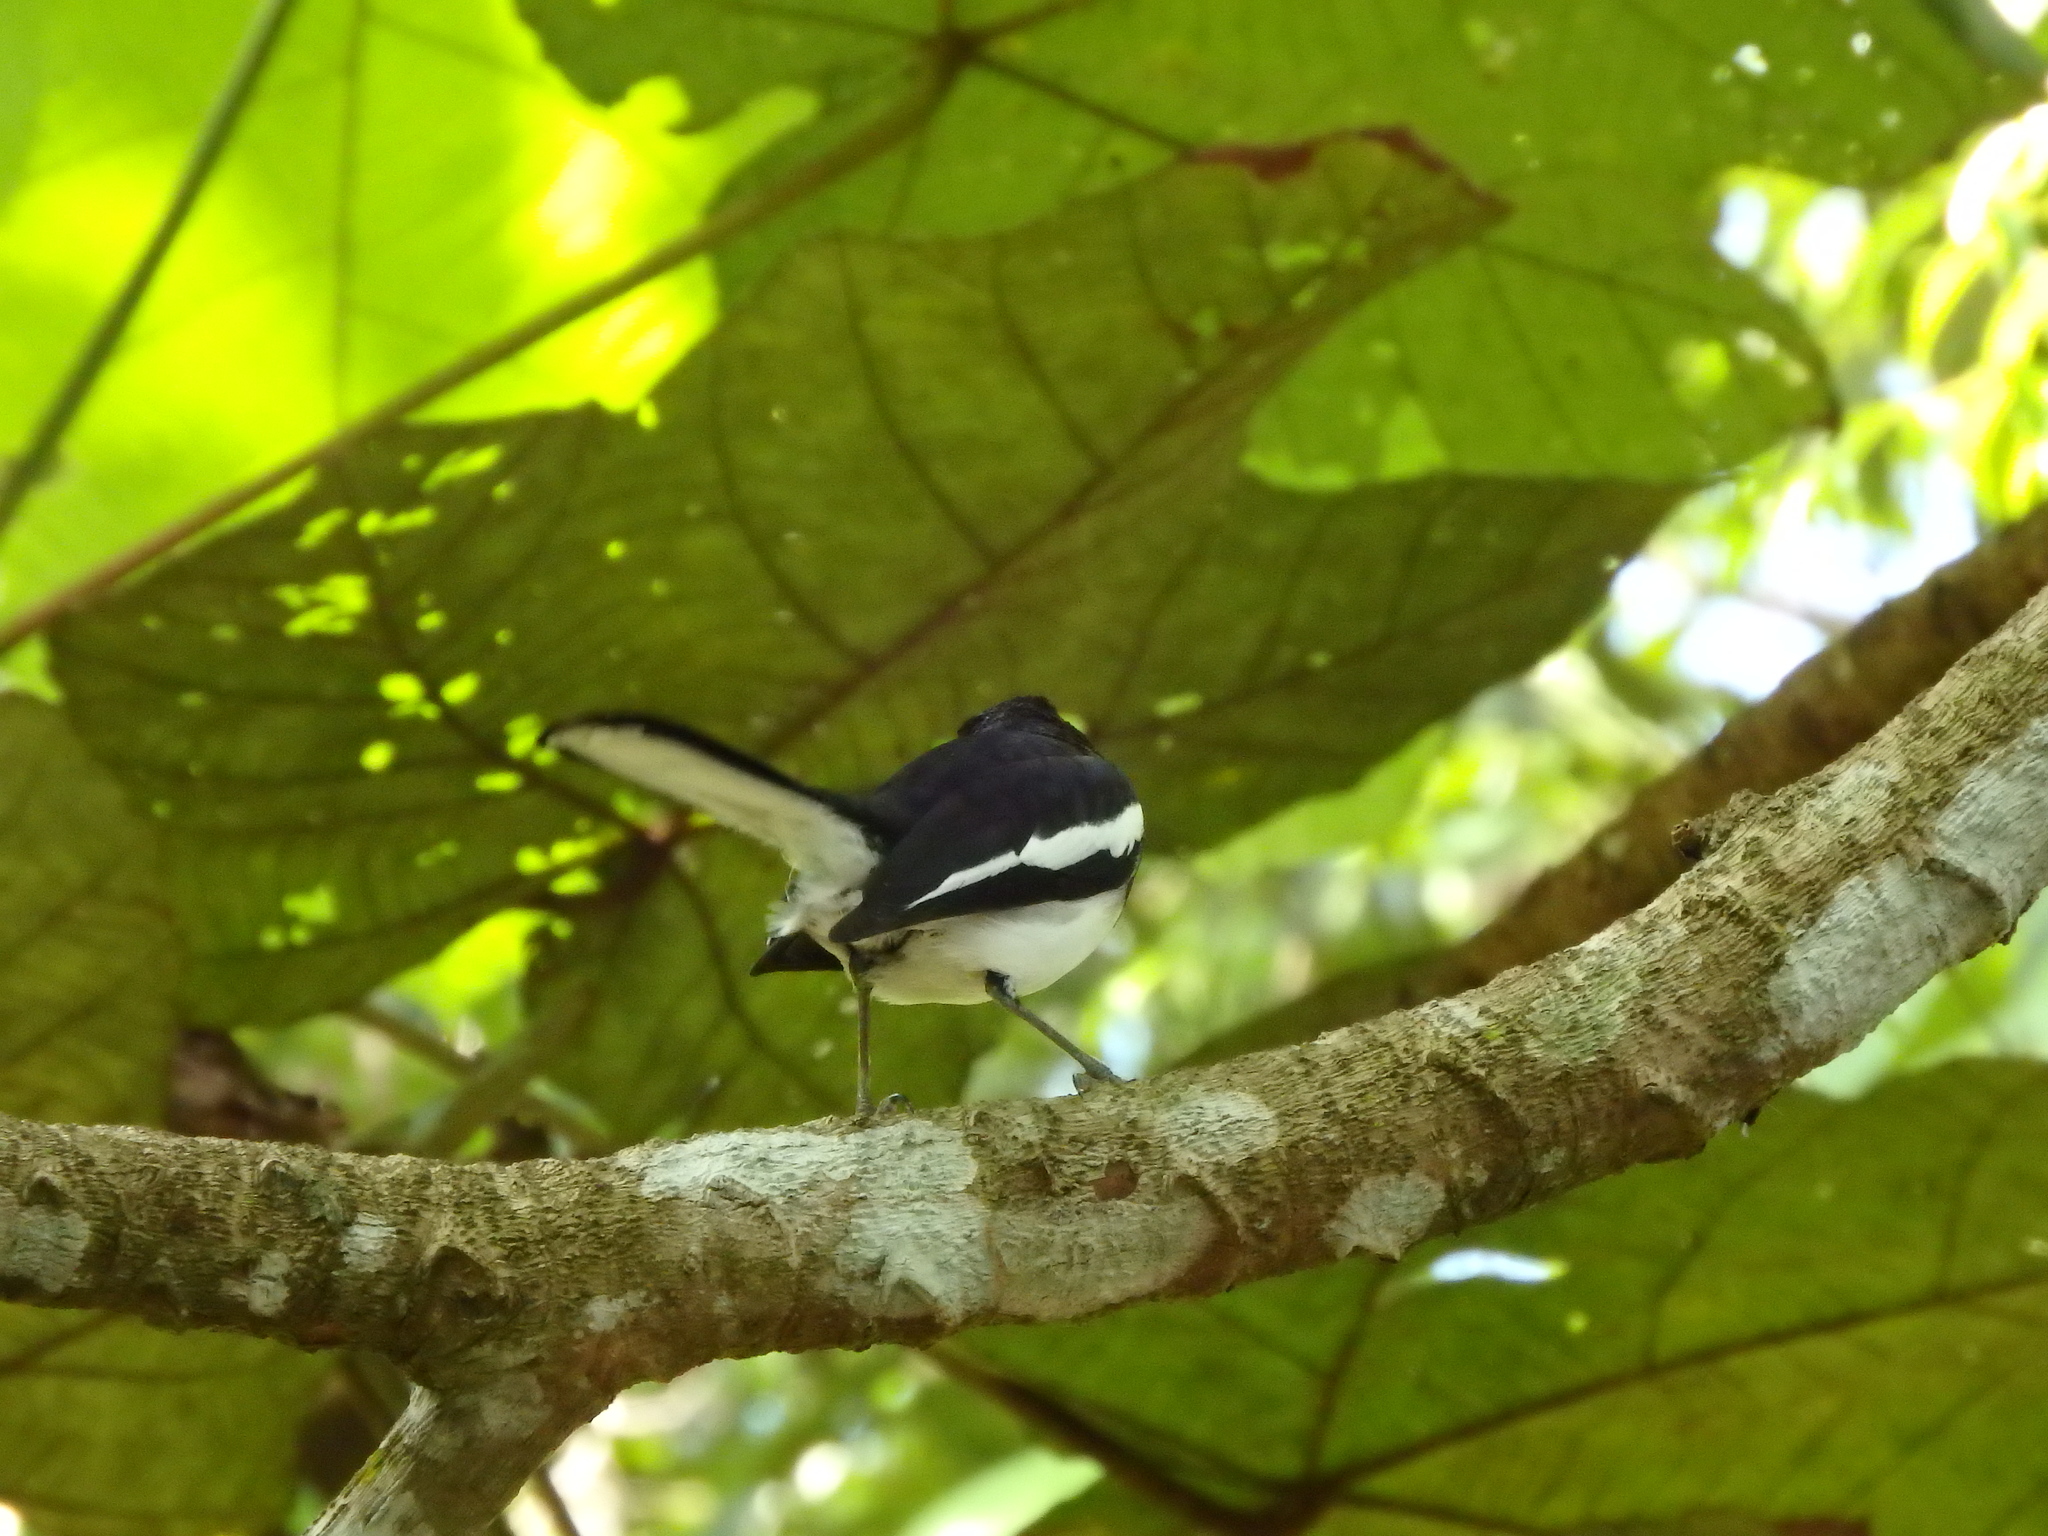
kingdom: Animalia
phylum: Chordata
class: Aves
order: Passeriformes
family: Muscicapidae
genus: Copsychus
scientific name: Copsychus saularis
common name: Oriental magpie-robin
